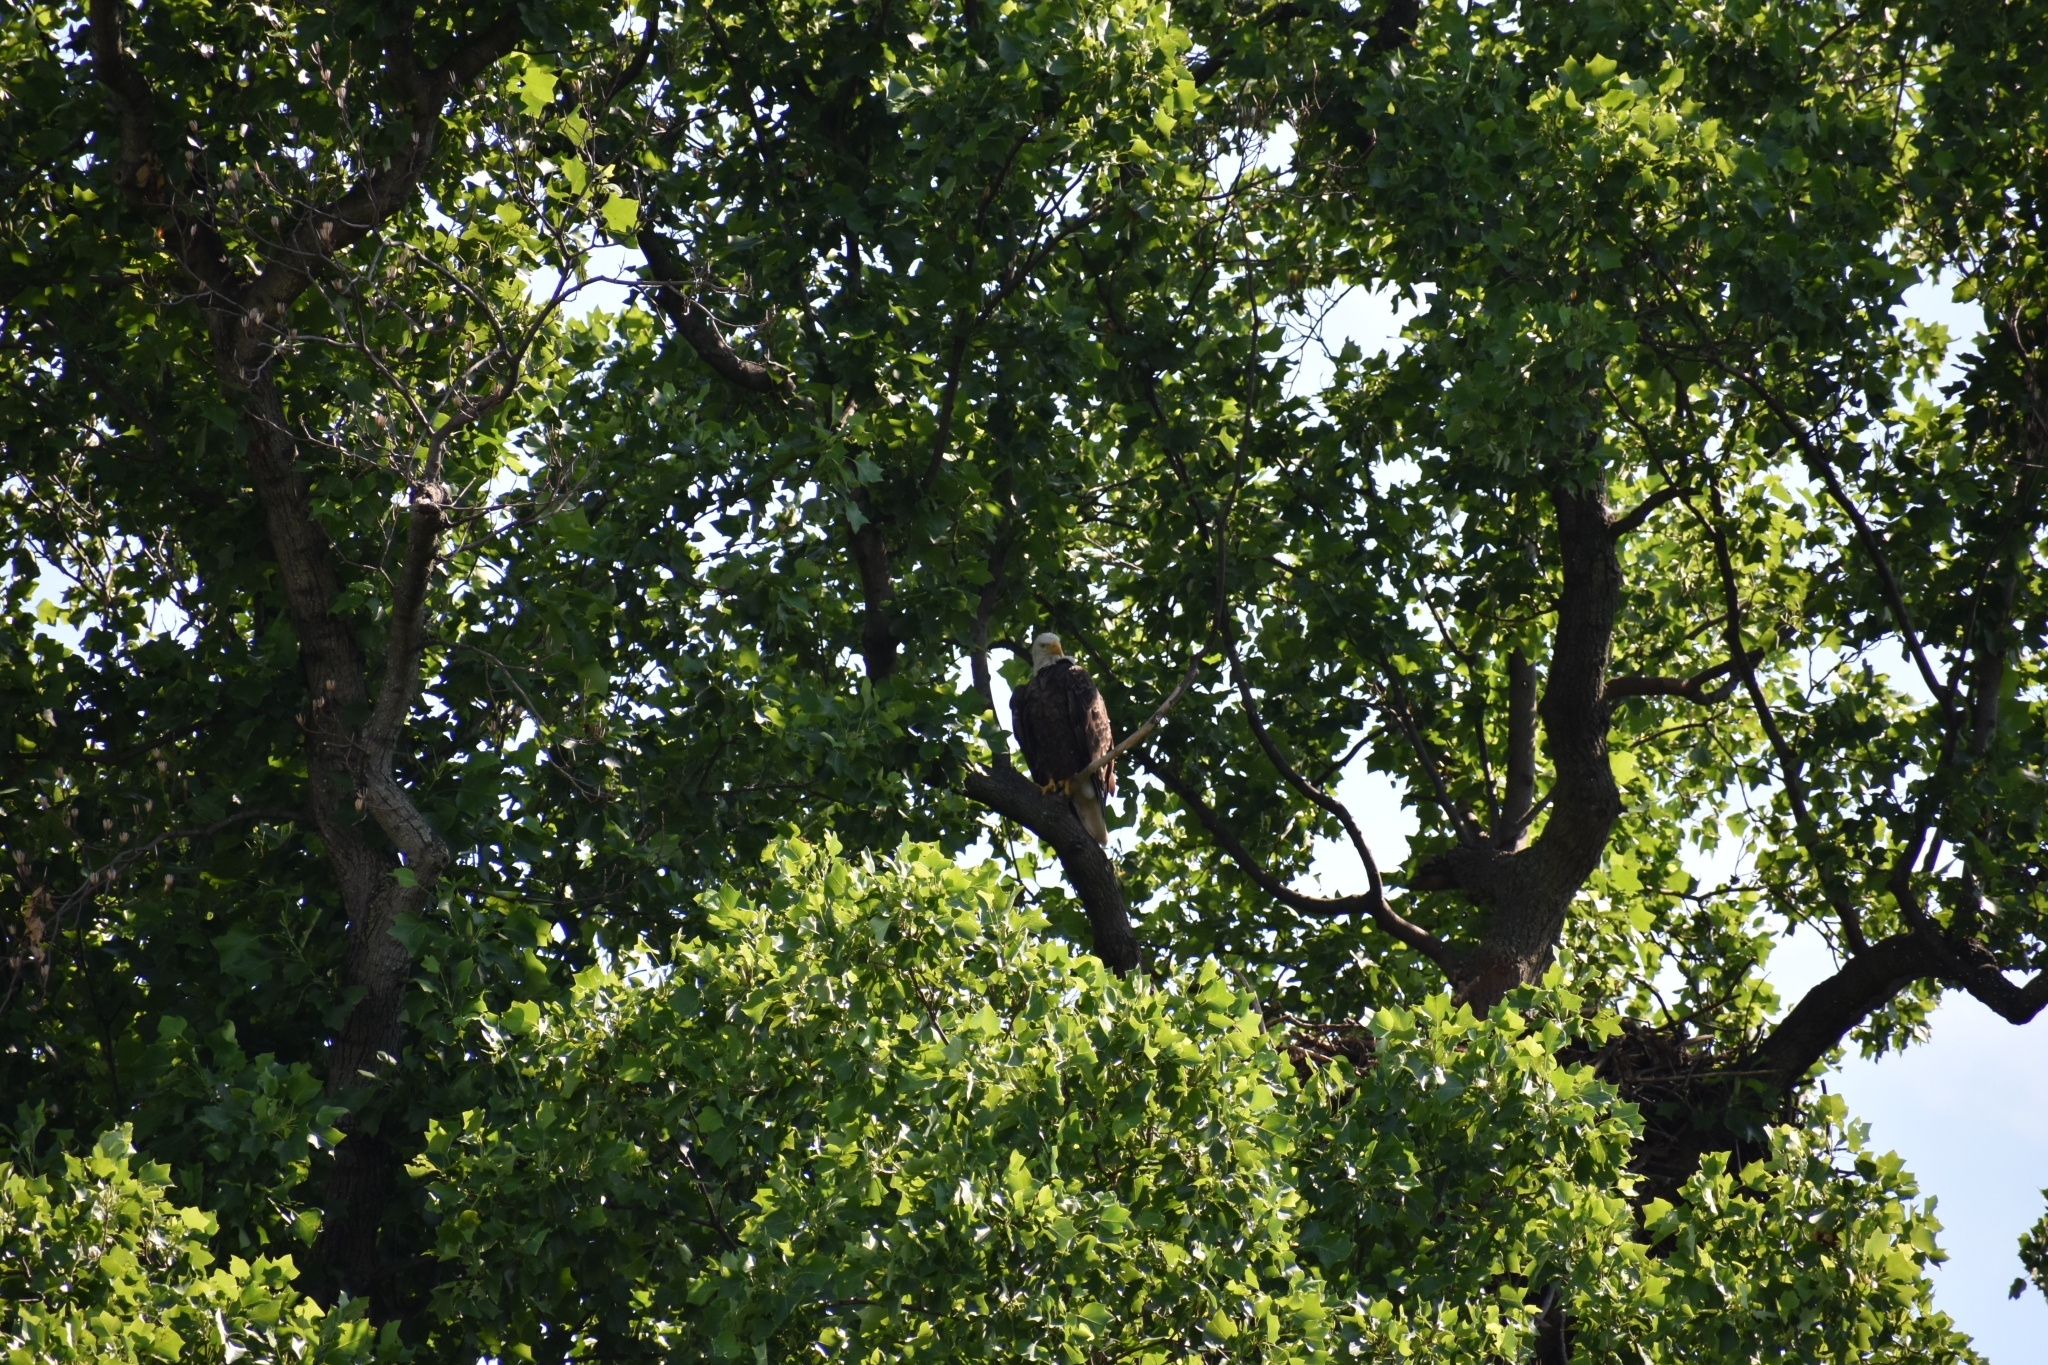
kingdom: Animalia
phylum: Chordata
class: Aves
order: Accipitriformes
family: Accipitridae
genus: Haliaeetus
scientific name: Haliaeetus leucocephalus
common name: Bald eagle
